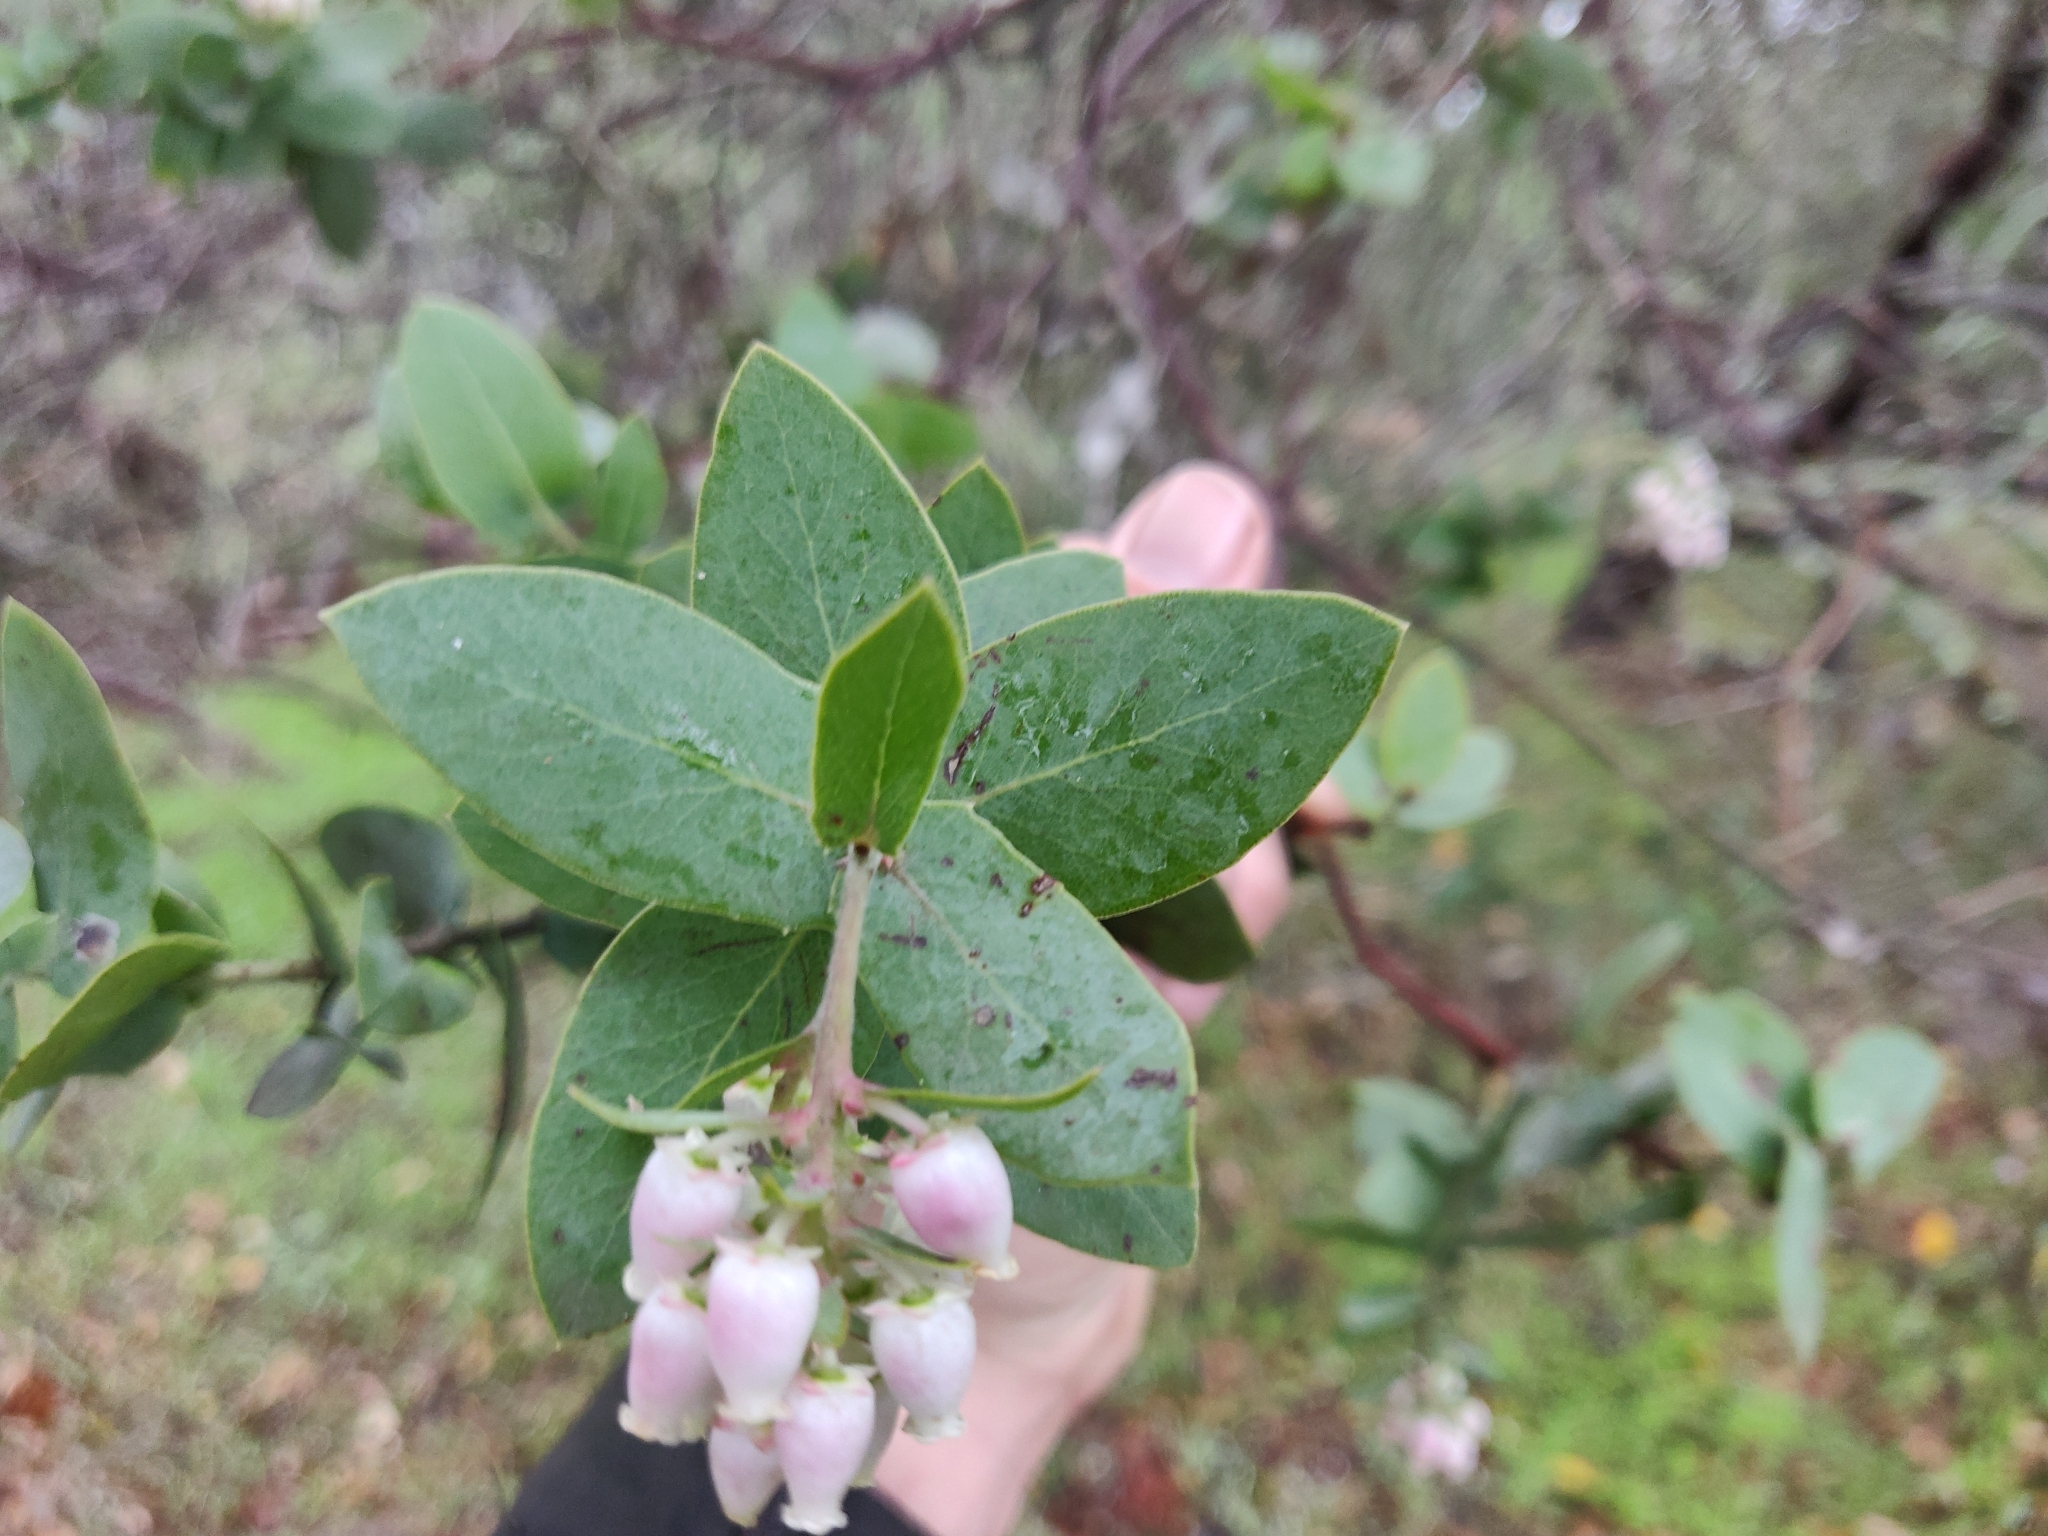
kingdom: Plantae
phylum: Tracheophyta
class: Magnoliopsida
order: Ericales
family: Ericaceae
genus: Arctostaphylos
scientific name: Arctostaphylos pallida
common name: Pallid manzanita
